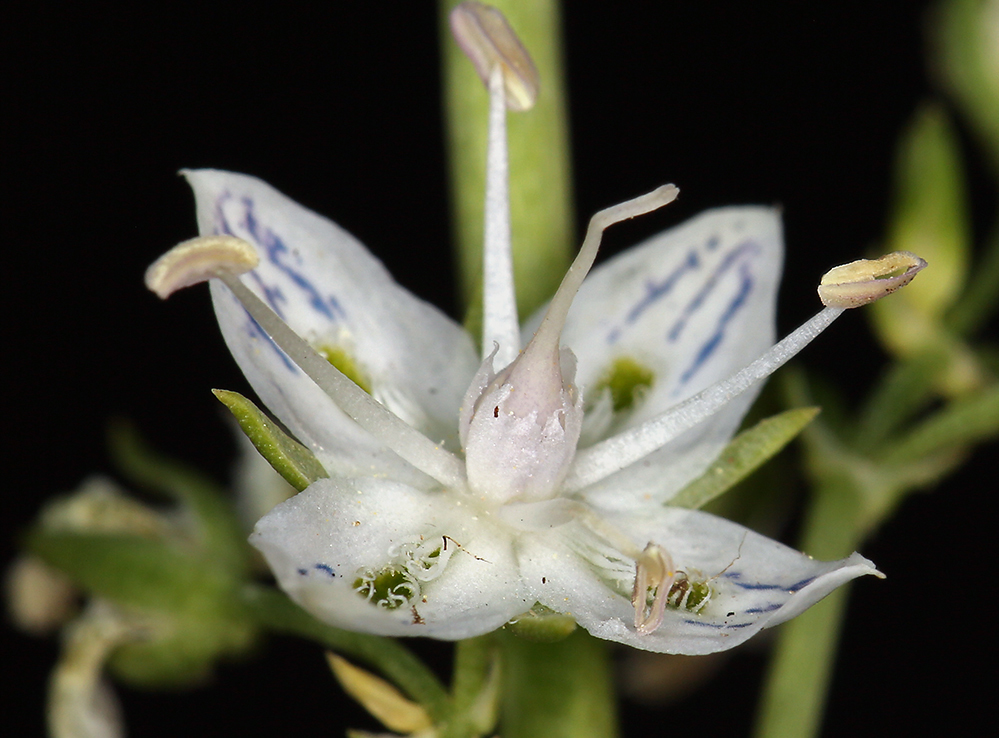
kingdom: Plantae
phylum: Tracheophyta
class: Magnoliopsida
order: Gentianales
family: Gentianaceae
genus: Frasera
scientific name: Frasera albicaulis
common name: Cusick's frasera
